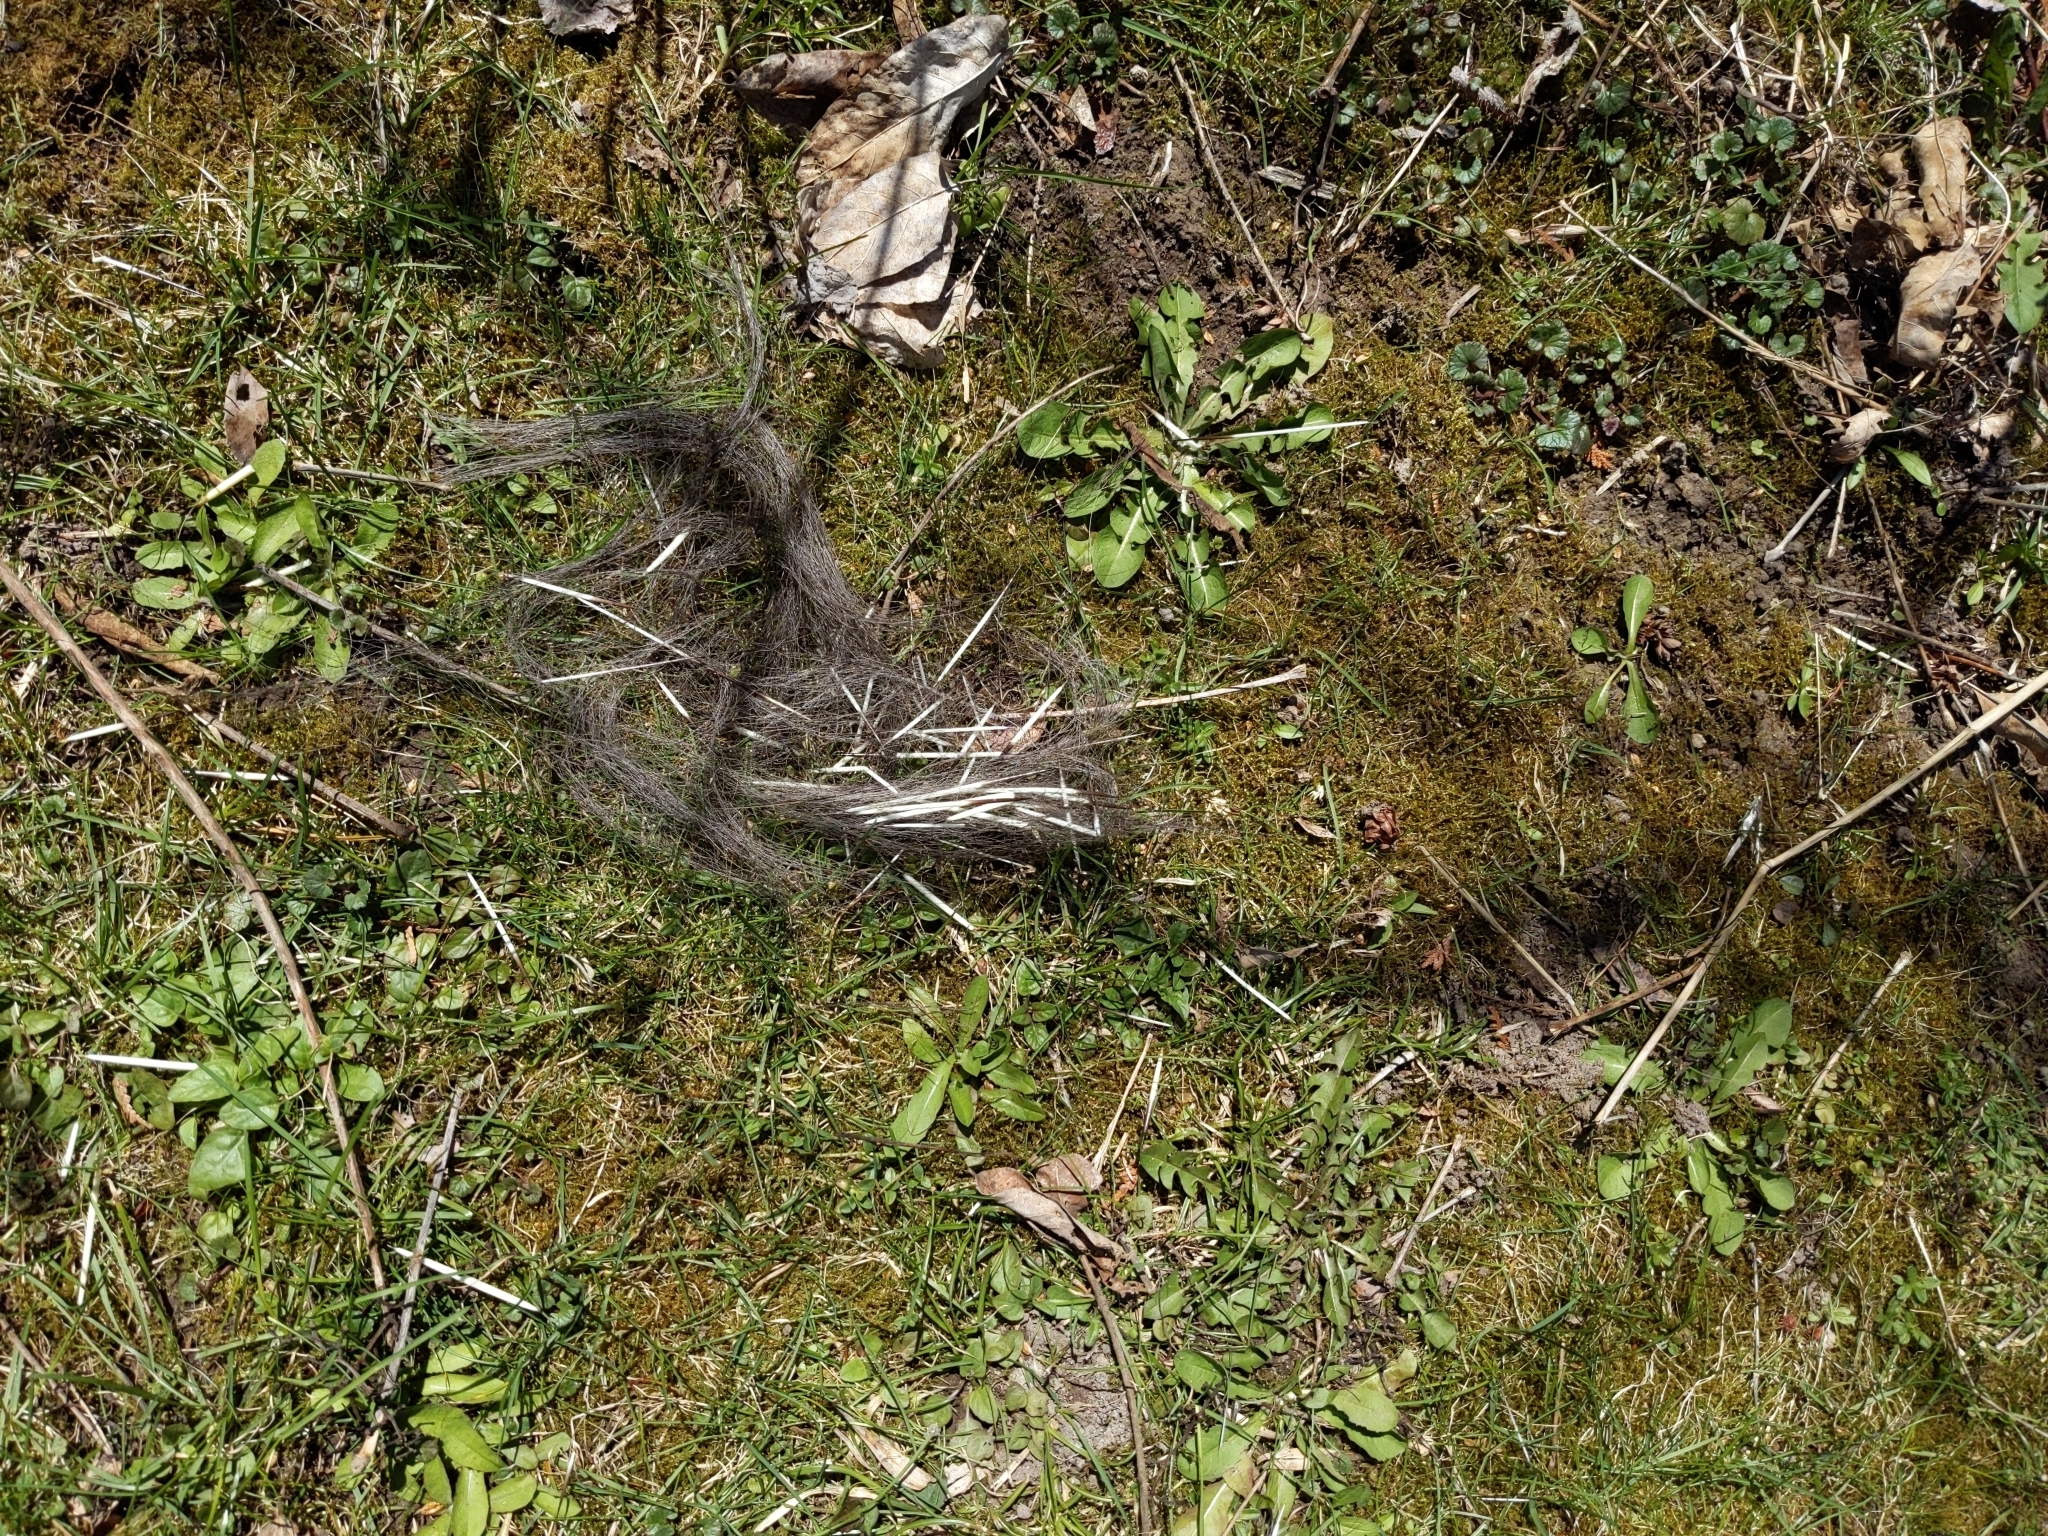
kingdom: Animalia
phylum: Chordata
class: Mammalia
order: Rodentia
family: Erethizontidae
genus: Erethizon
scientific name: Erethizon dorsatus
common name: North american porcupine
